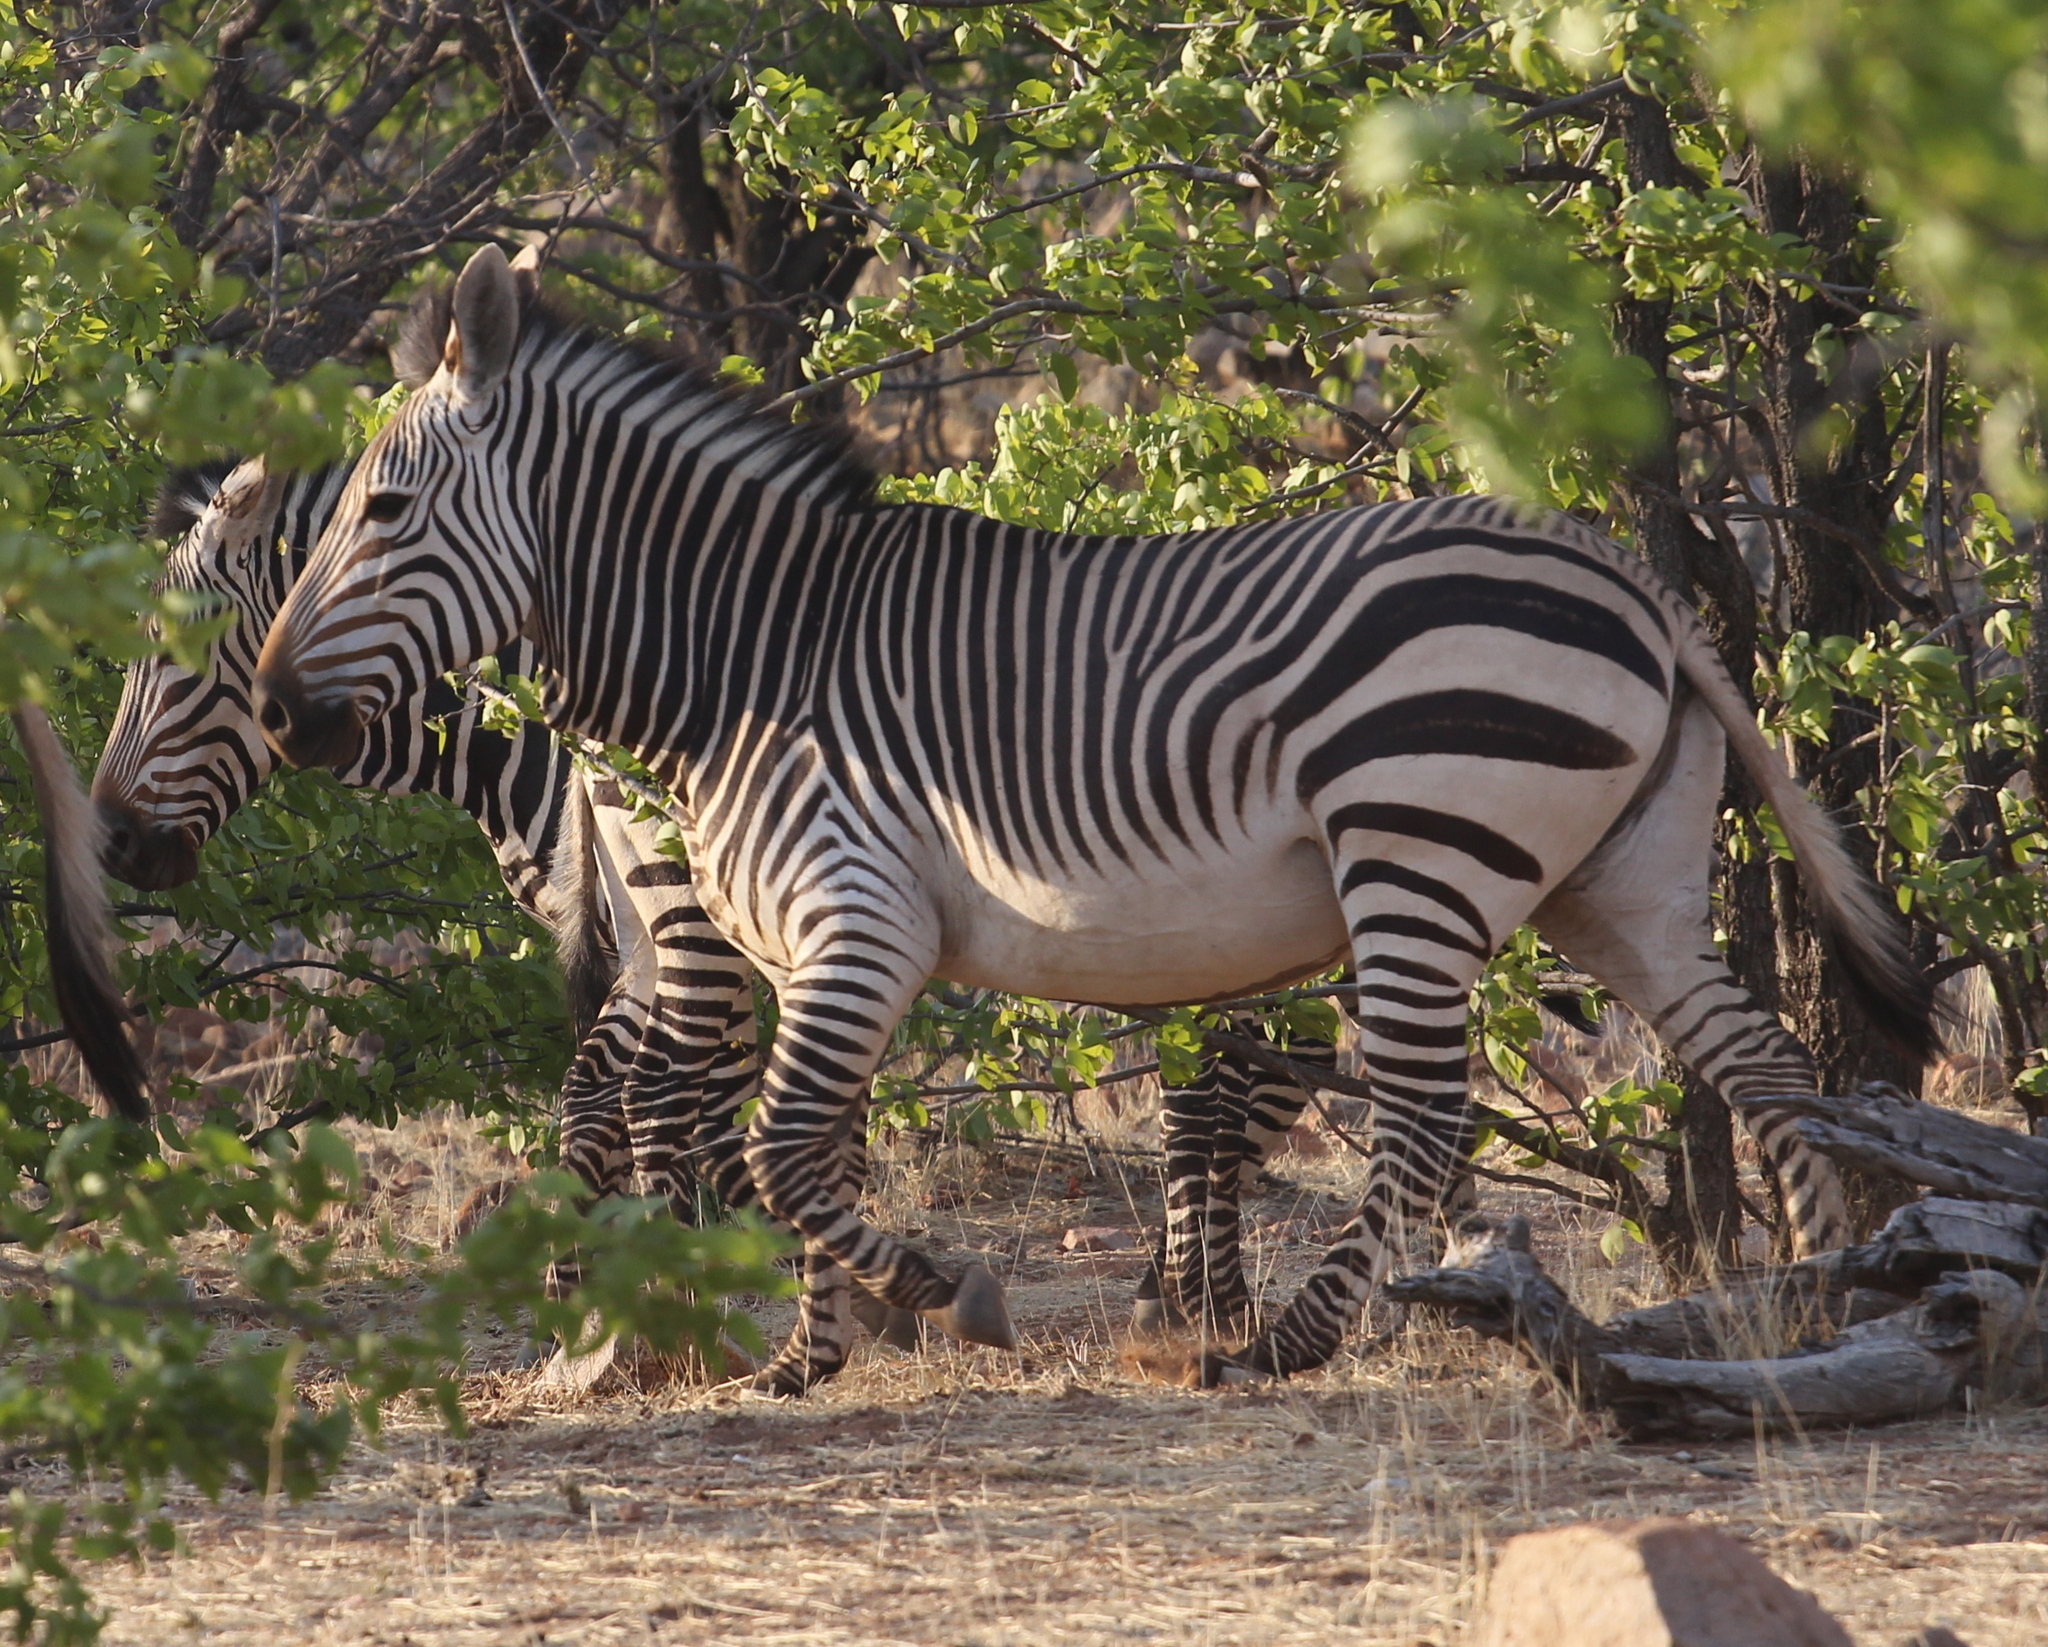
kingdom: Animalia
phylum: Chordata
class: Mammalia
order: Perissodactyla
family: Equidae
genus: Equus
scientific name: Equus hartmannae
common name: Hartmann's mountain zebra
